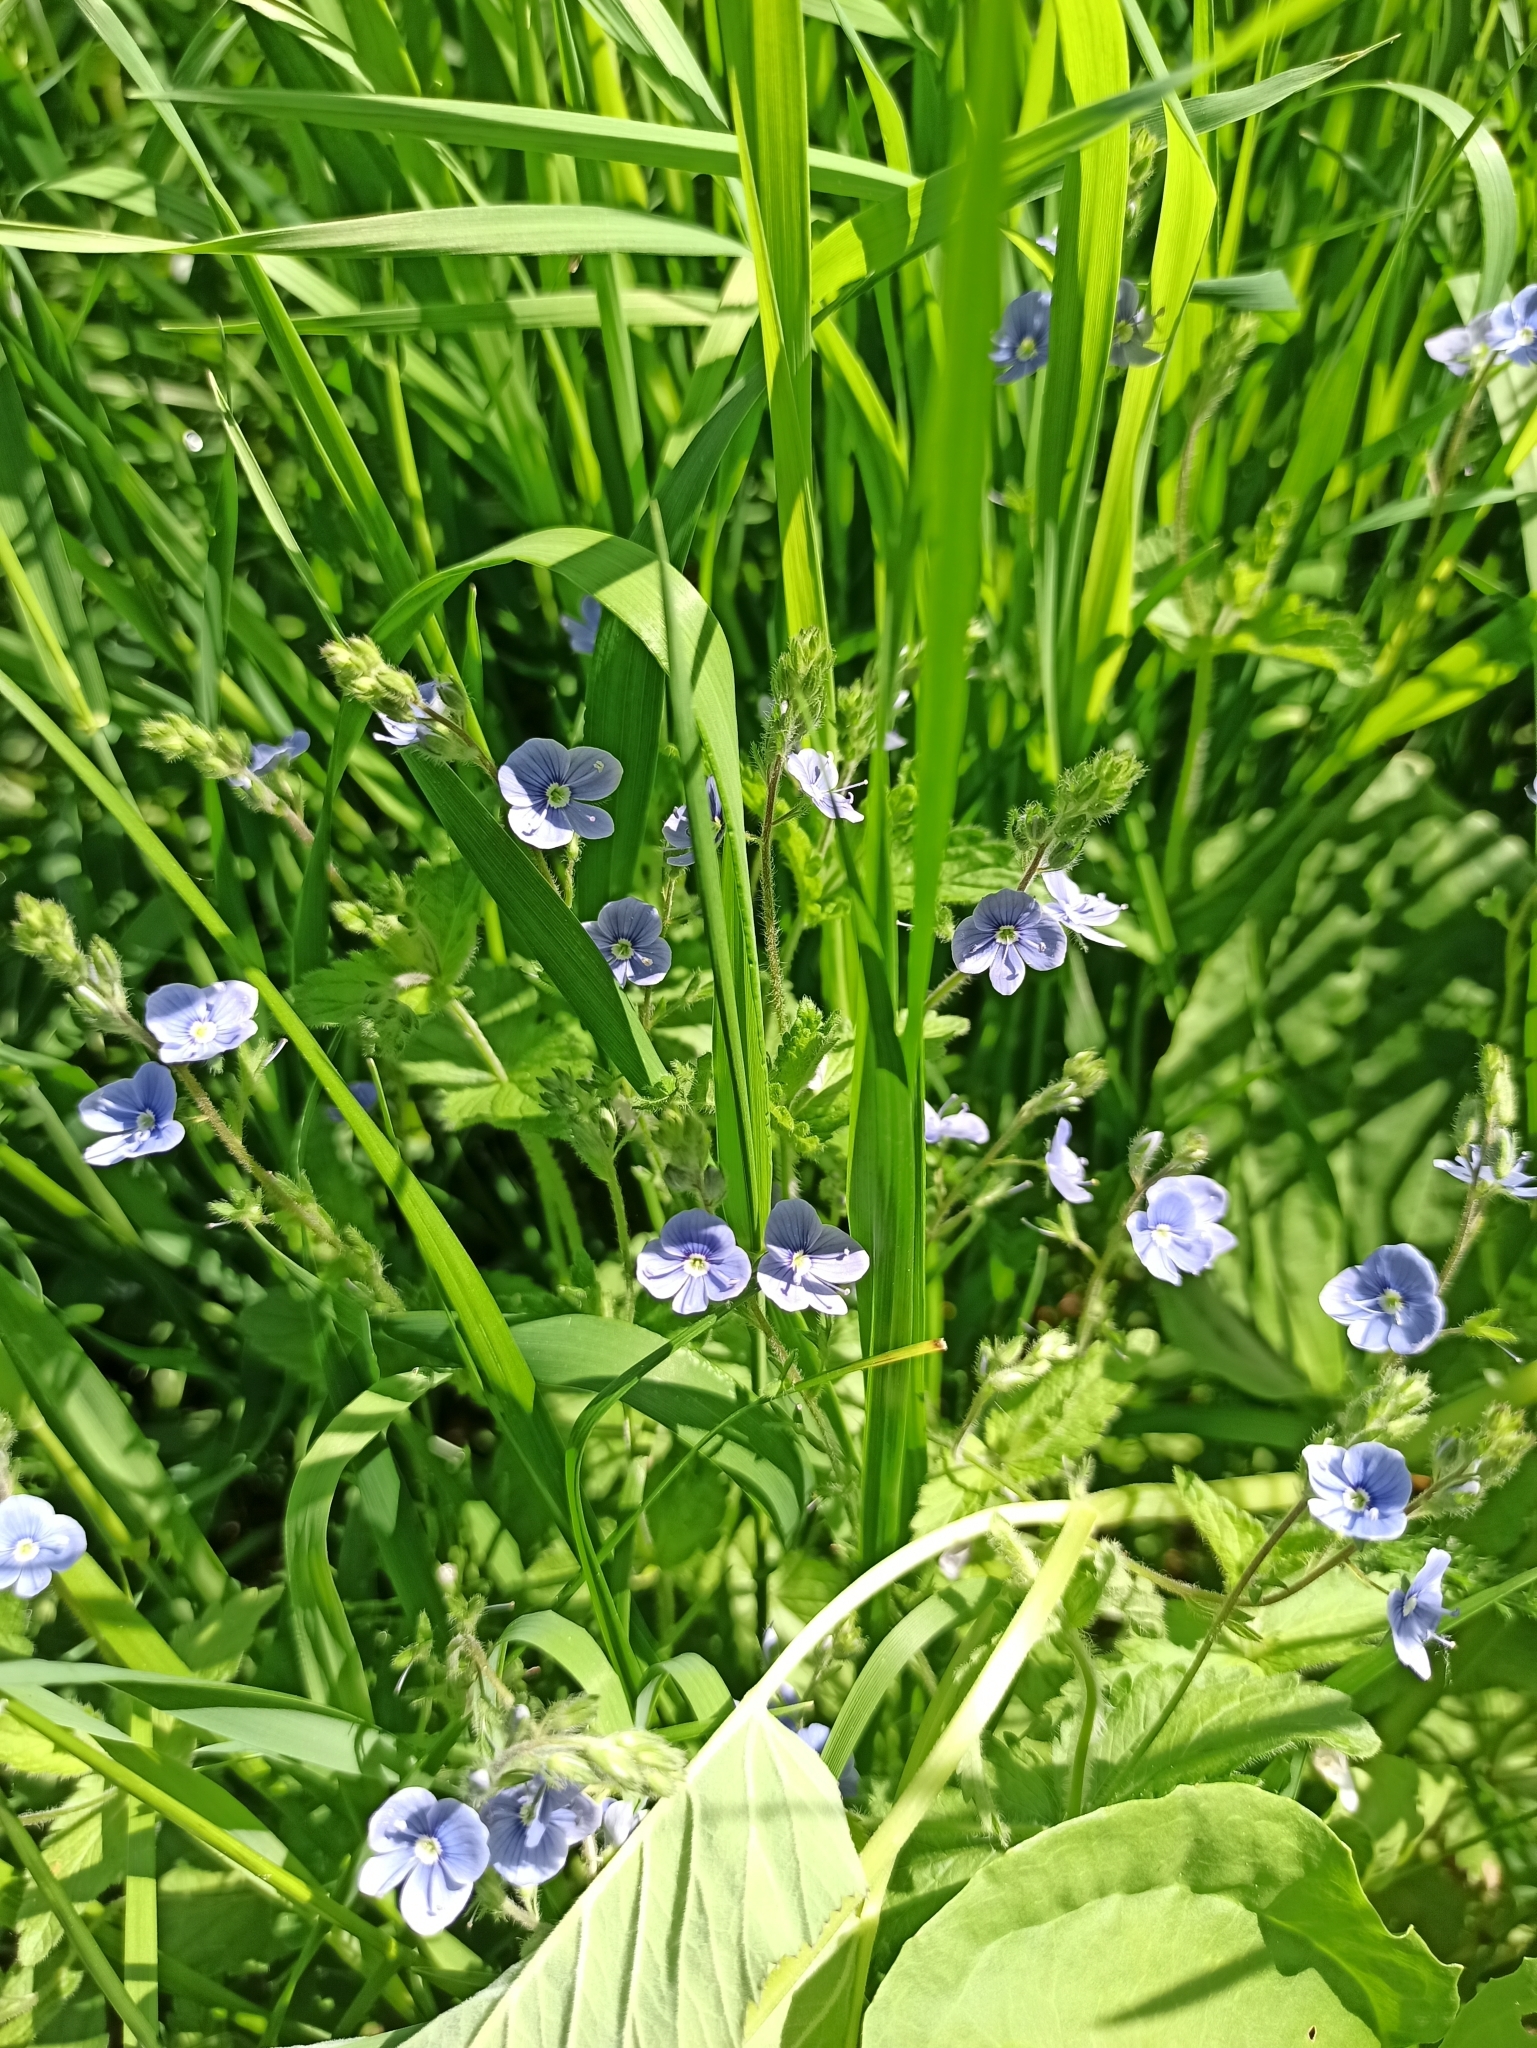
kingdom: Plantae
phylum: Tracheophyta
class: Magnoliopsida
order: Lamiales
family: Plantaginaceae
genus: Veronica
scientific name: Veronica chamaedrys
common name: Germander speedwell
